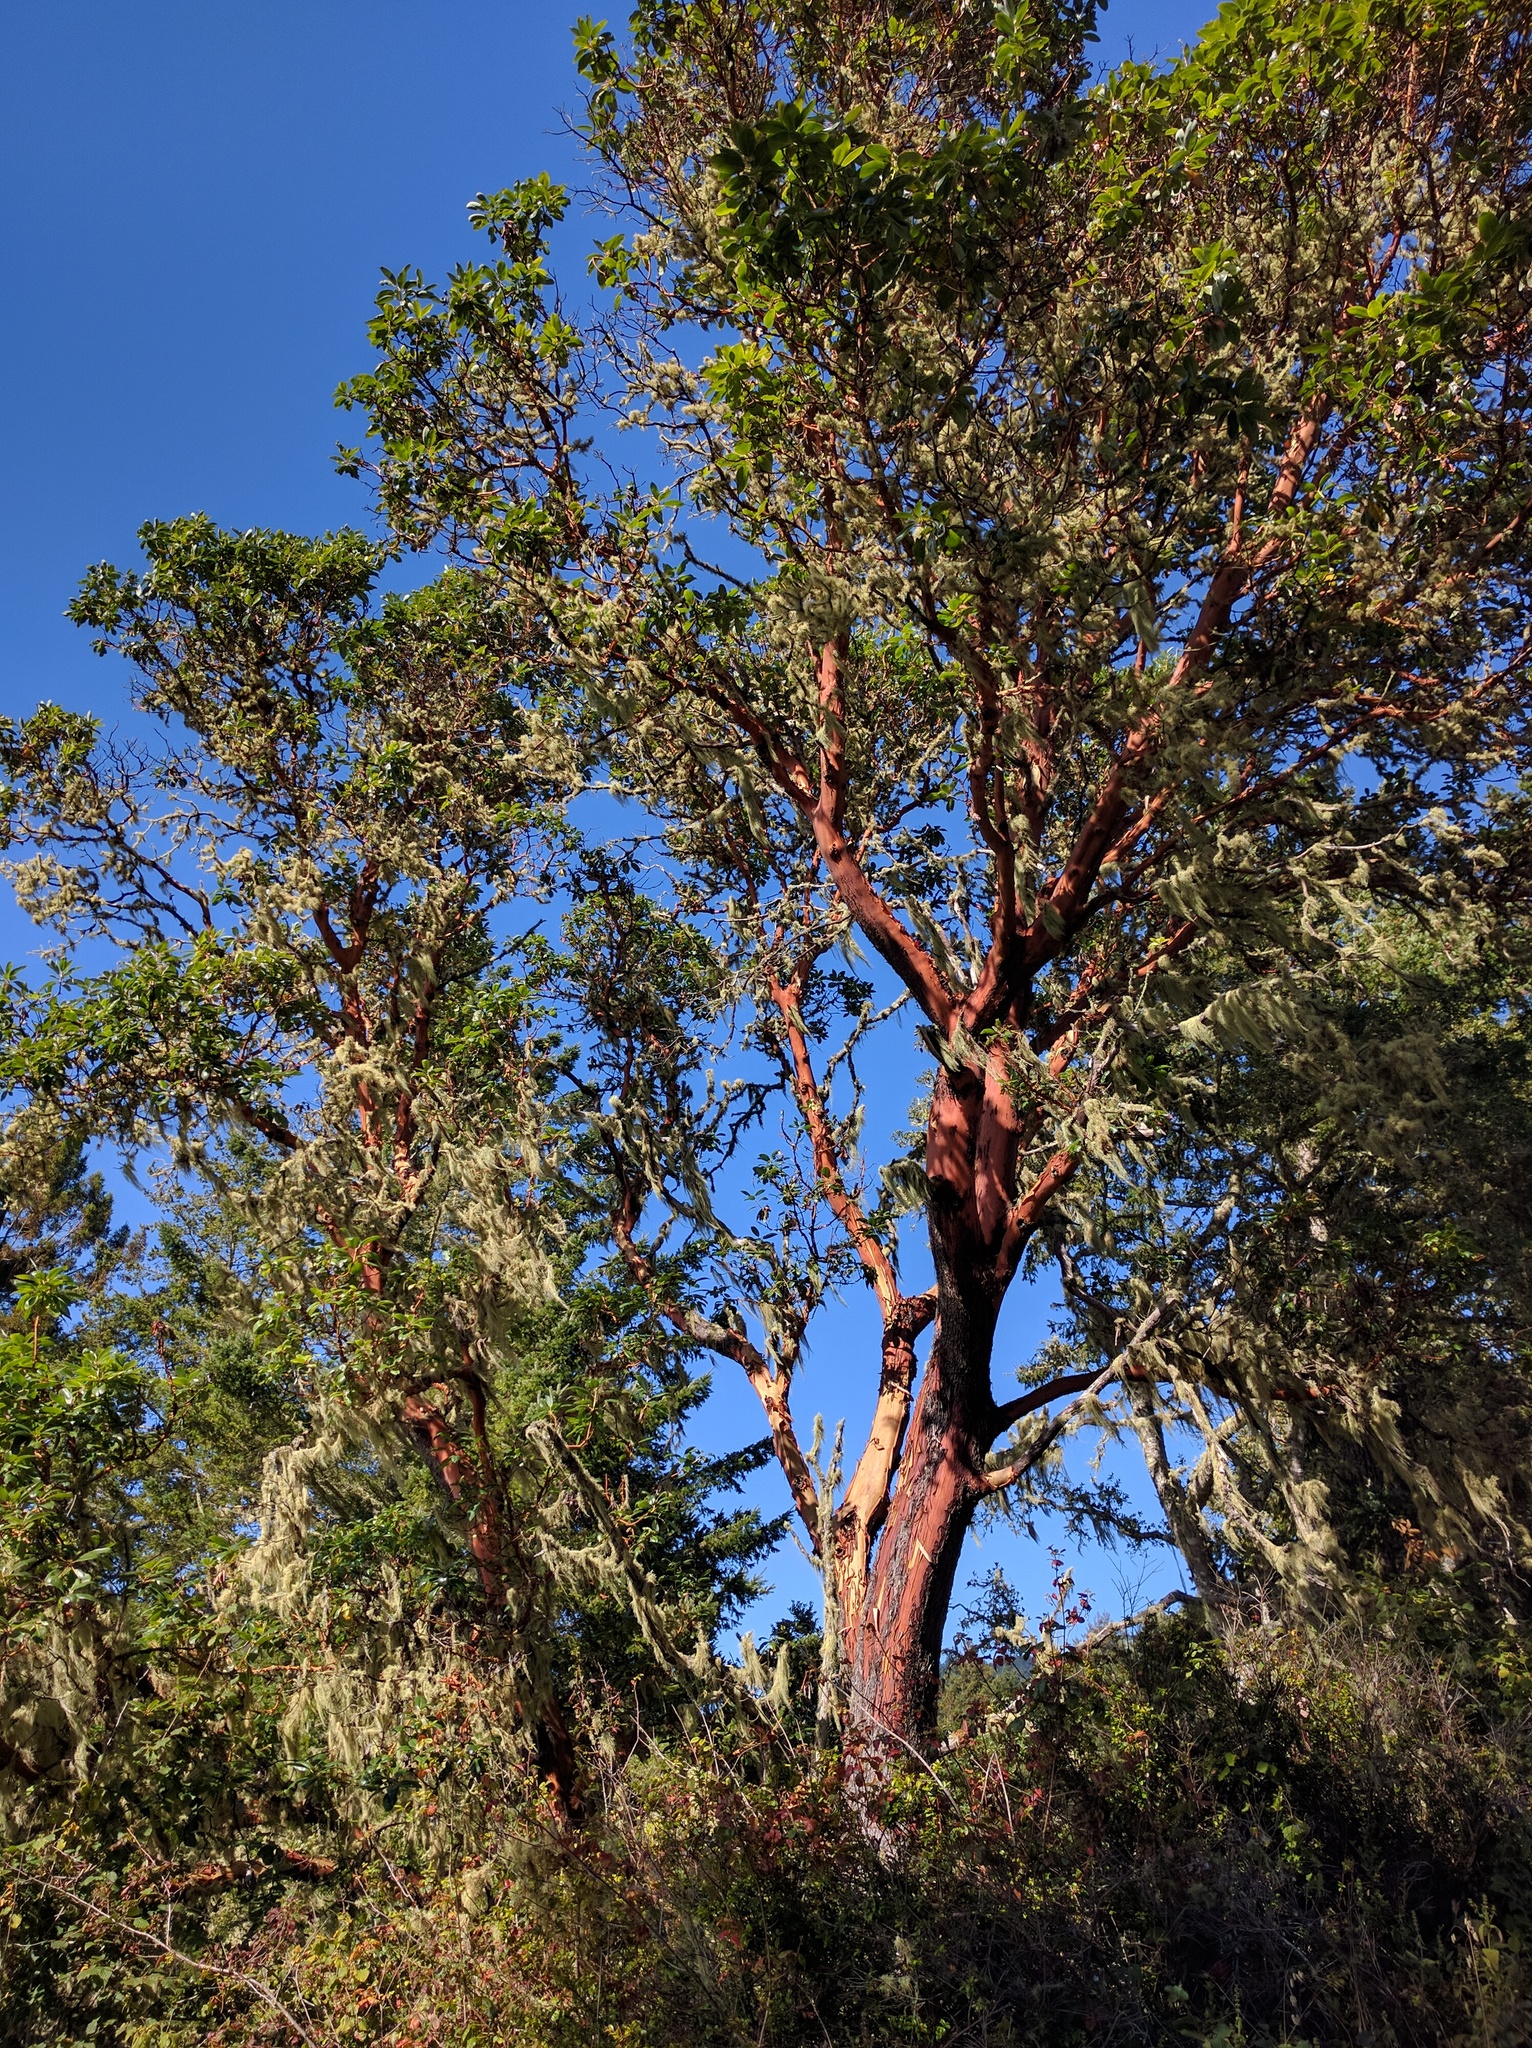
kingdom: Plantae
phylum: Tracheophyta
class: Magnoliopsida
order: Ericales
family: Ericaceae
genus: Arbutus
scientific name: Arbutus menziesii
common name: Pacific madrone
